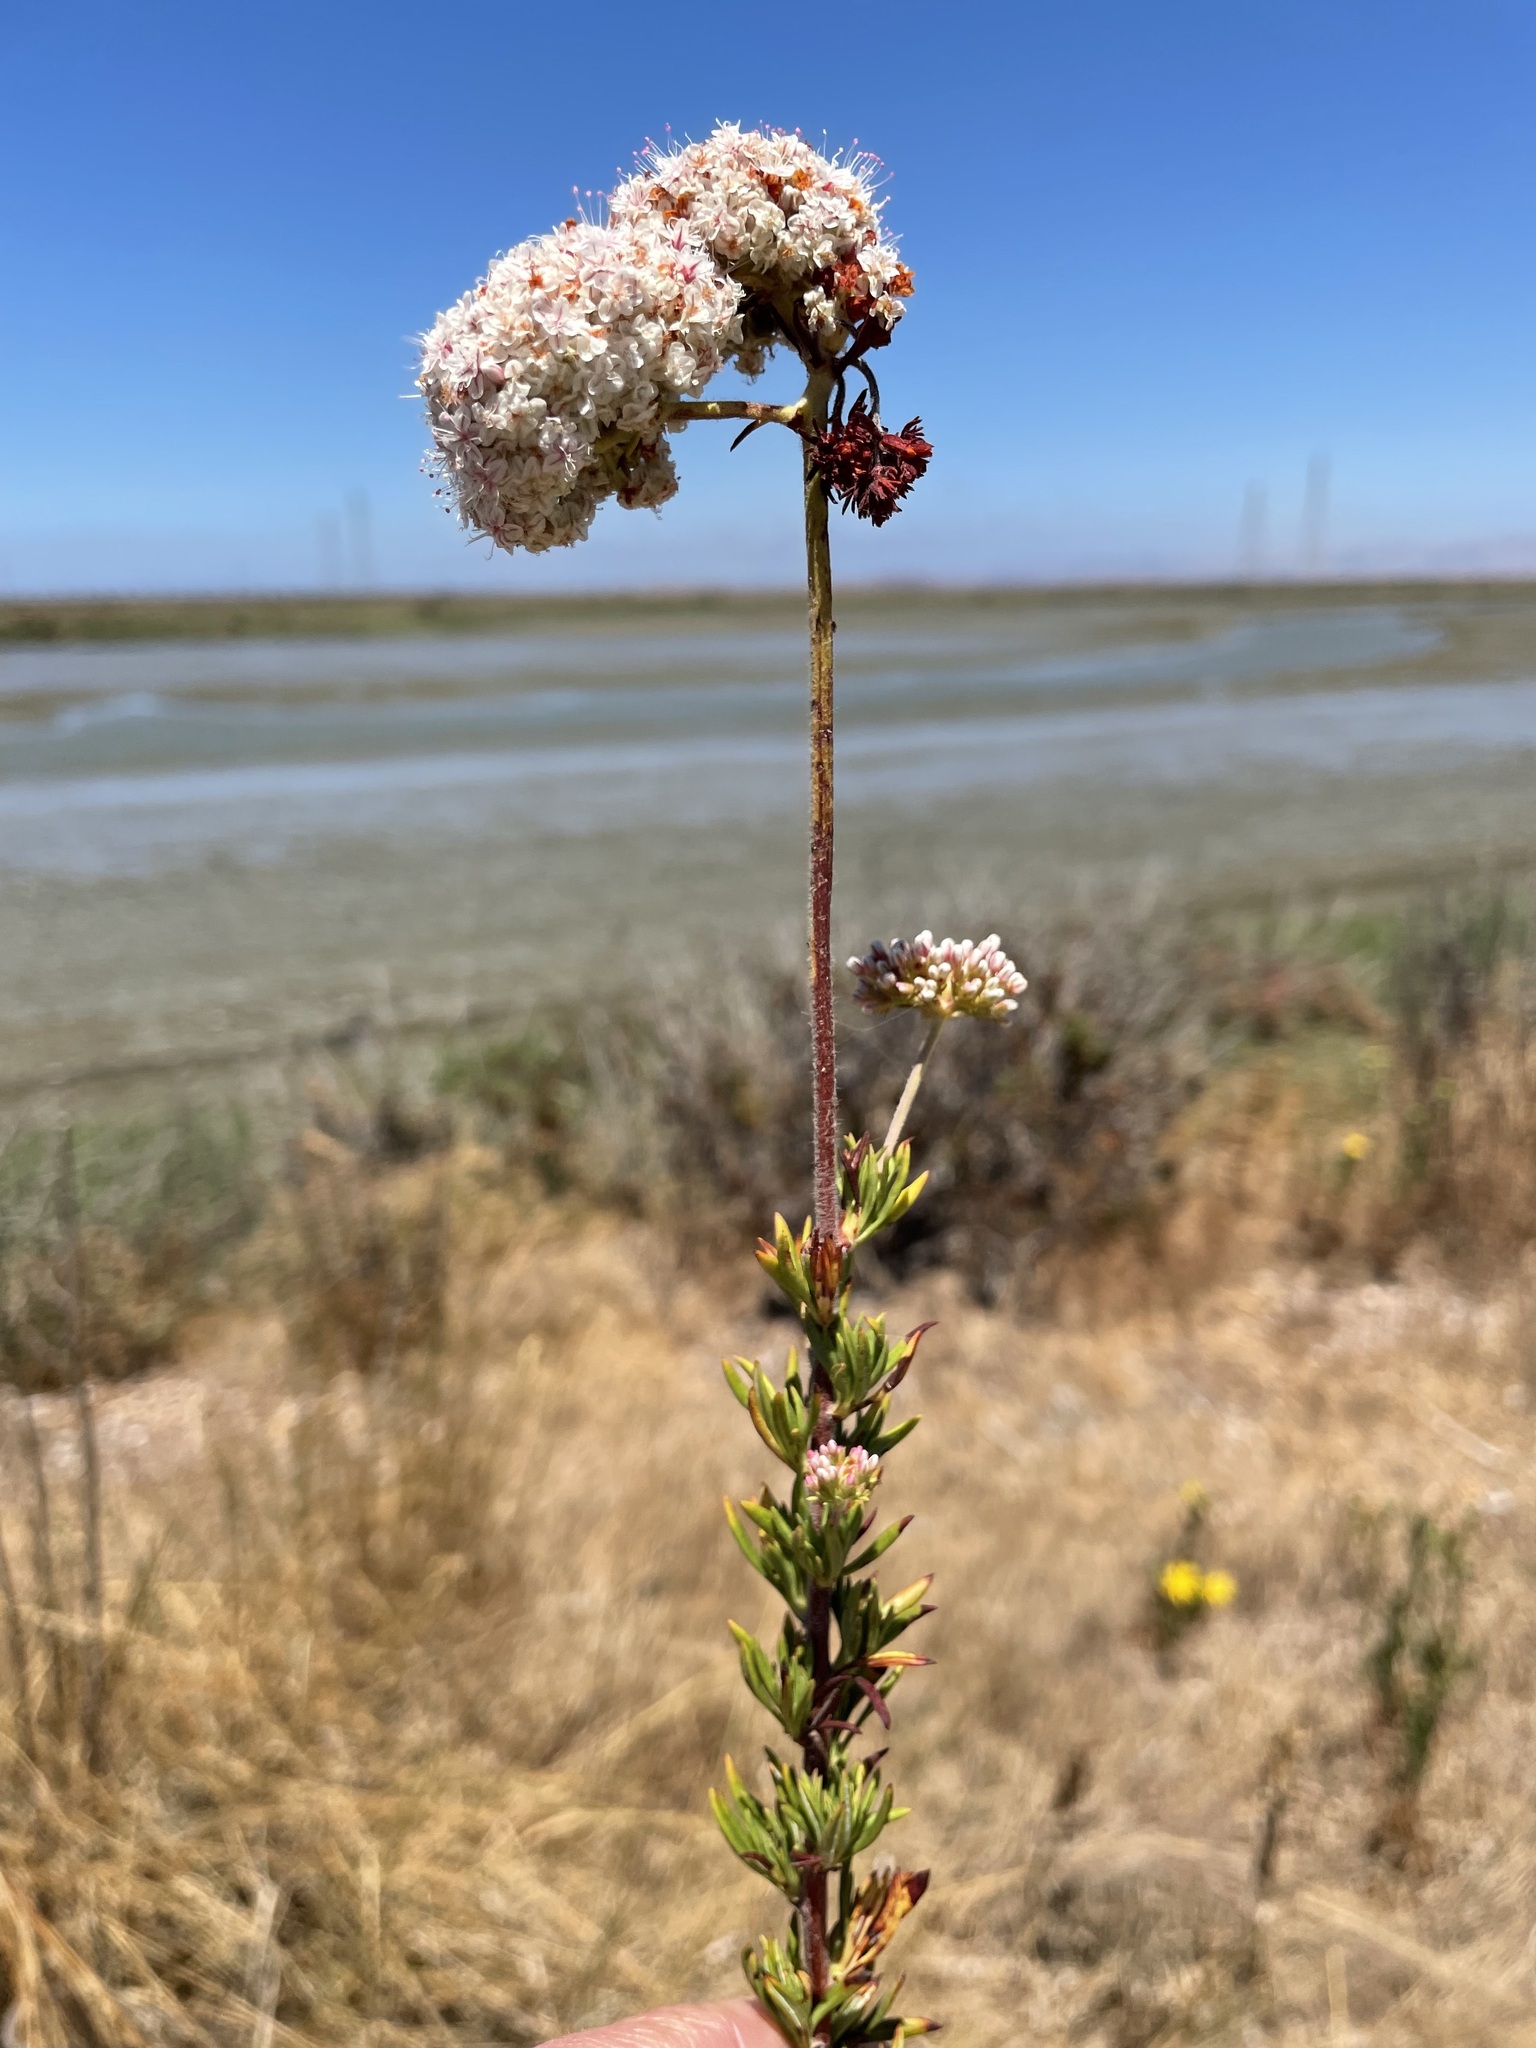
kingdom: Plantae
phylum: Tracheophyta
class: Magnoliopsida
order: Caryophyllales
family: Polygonaceae
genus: Eriogonum
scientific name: Eriogonum fasciculatum
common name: California wild buckwheat
